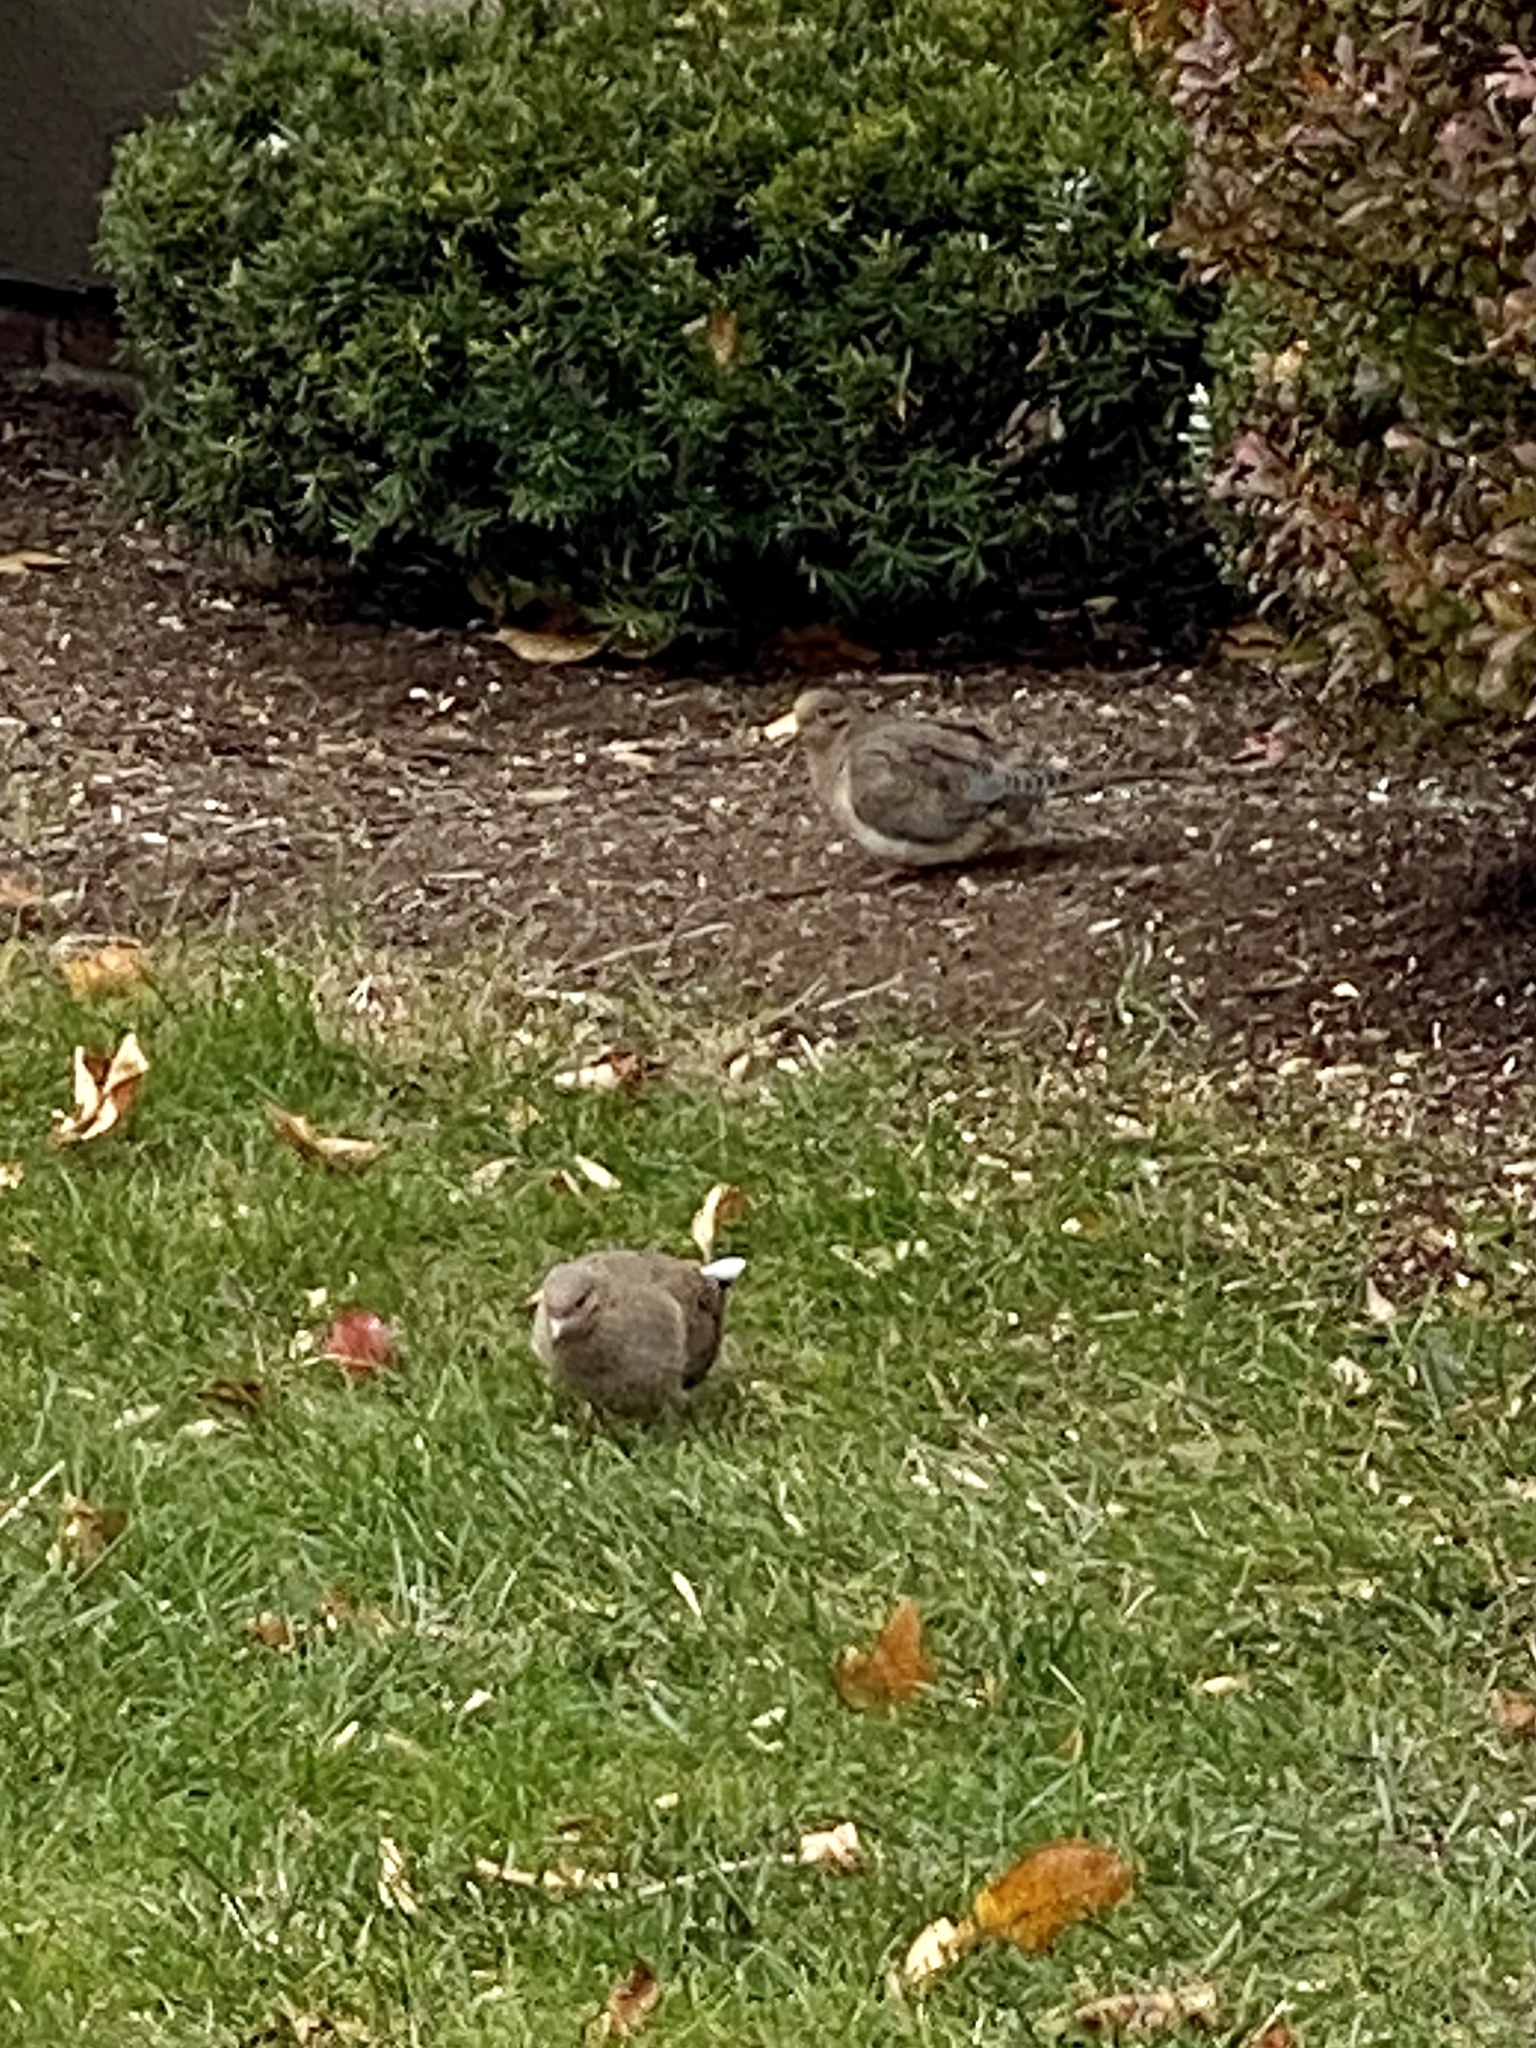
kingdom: Animalia
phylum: Chordata
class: Aves
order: Columbiformes
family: Columbidae
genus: Zenaida
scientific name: Zenaida macroura
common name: Mourning dove
